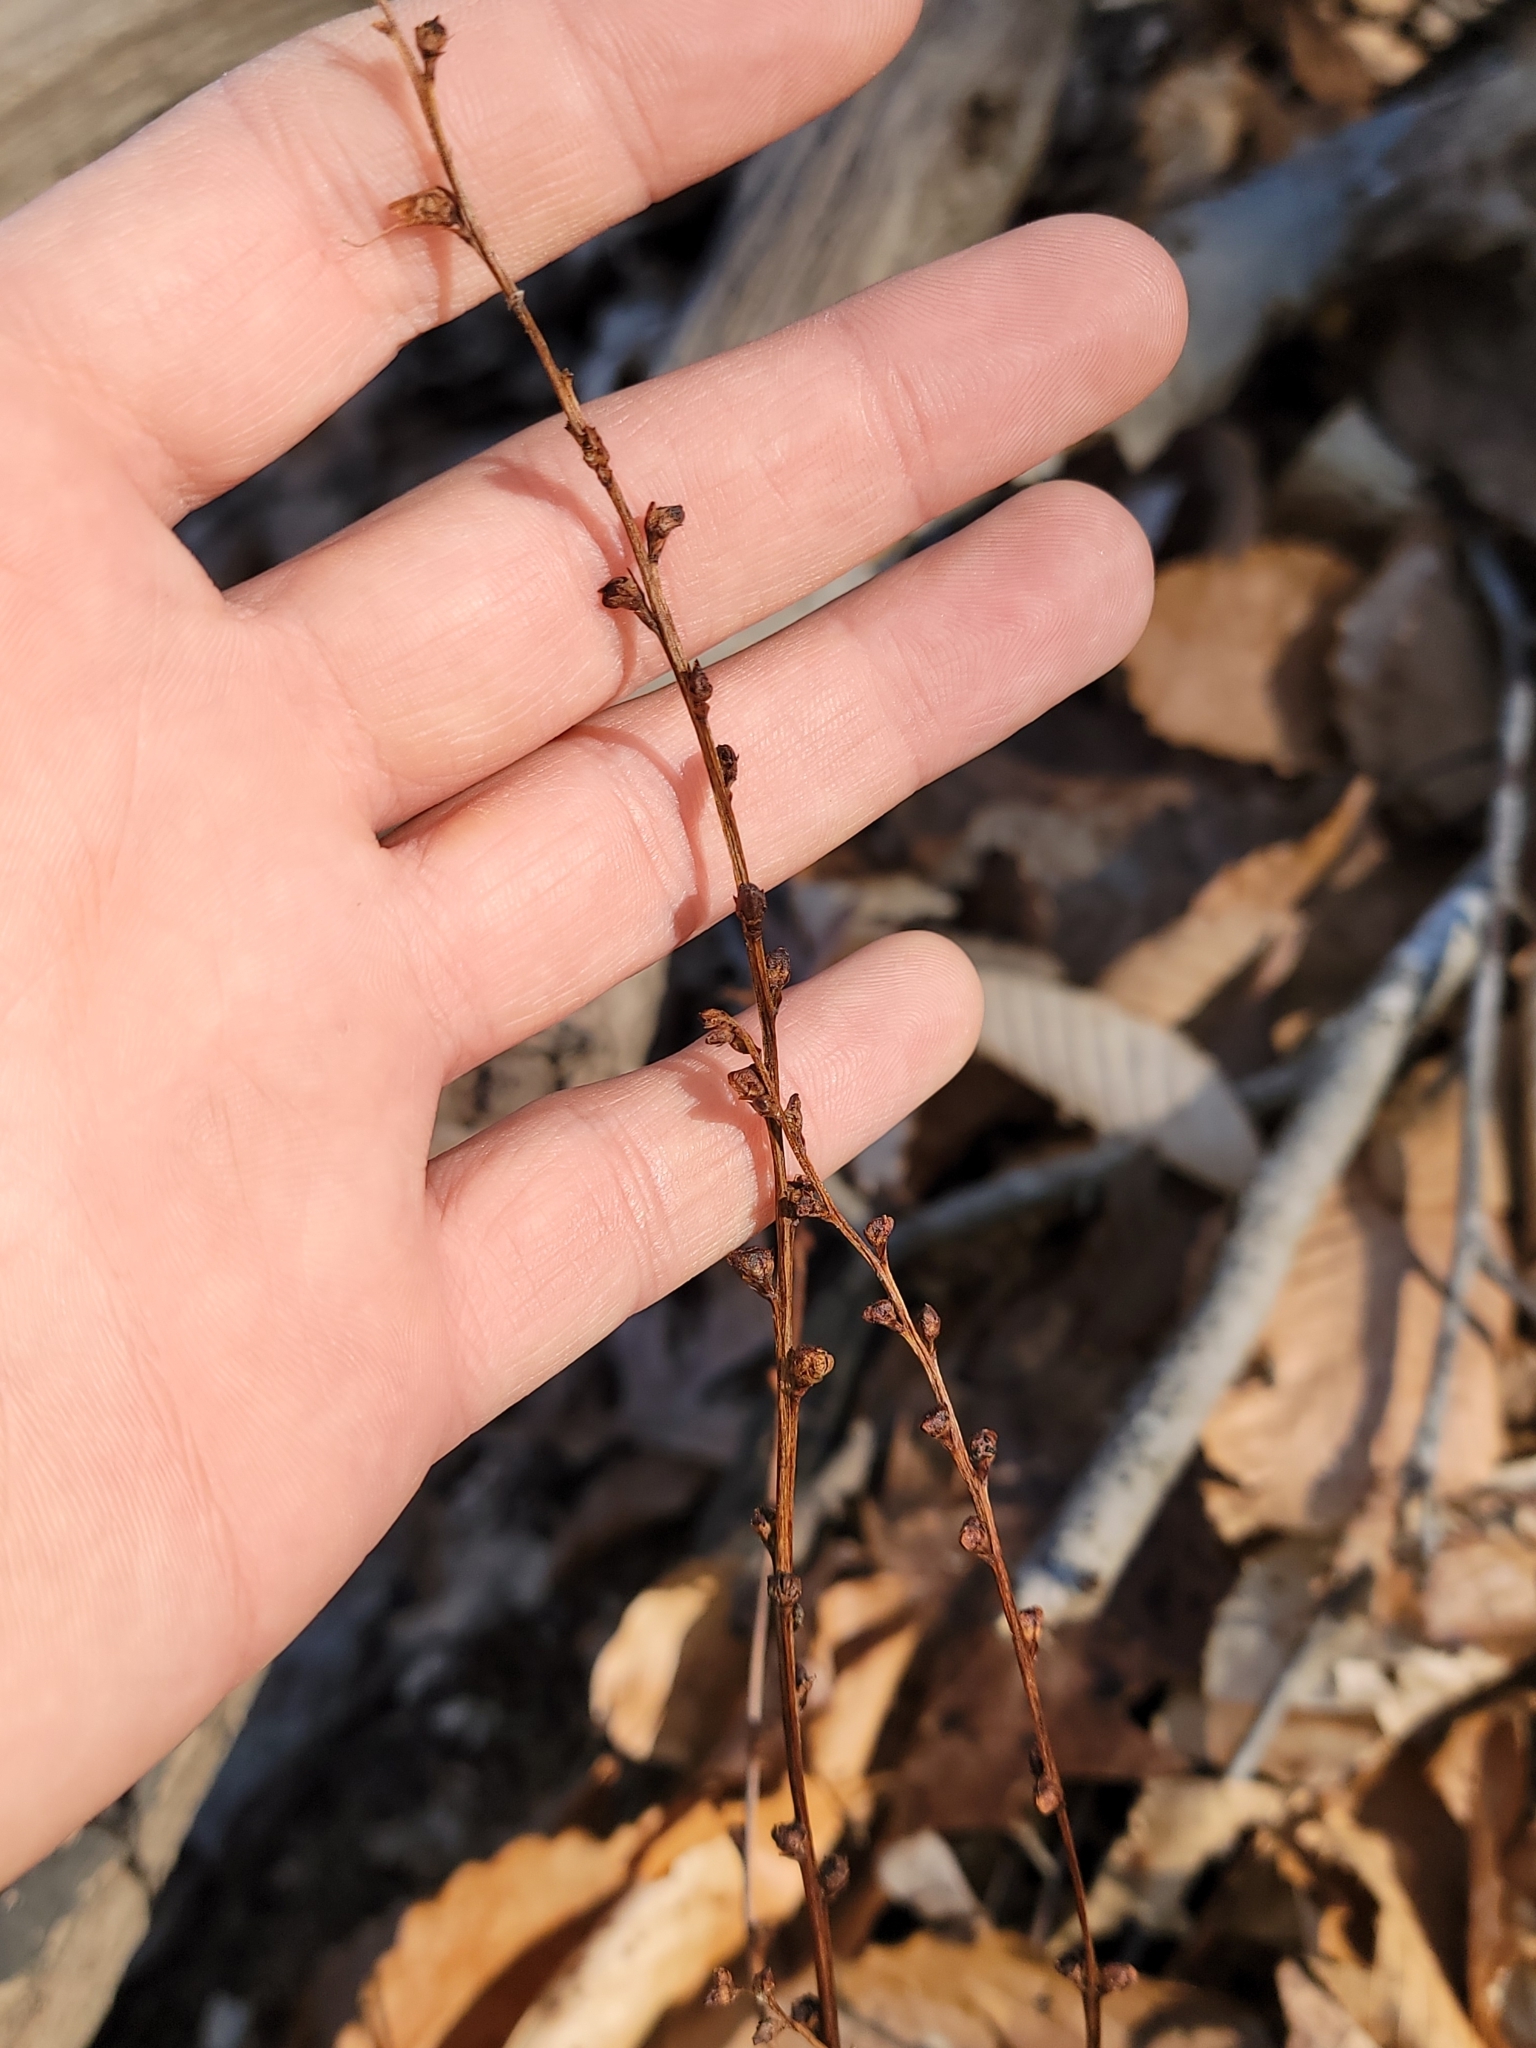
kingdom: Plantae
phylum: Tracheophyta
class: Magnoliopsida
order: Lamiales
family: Orobanchaceae
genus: Epifagus
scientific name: Epifagus virginiana
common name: Beechdrops
